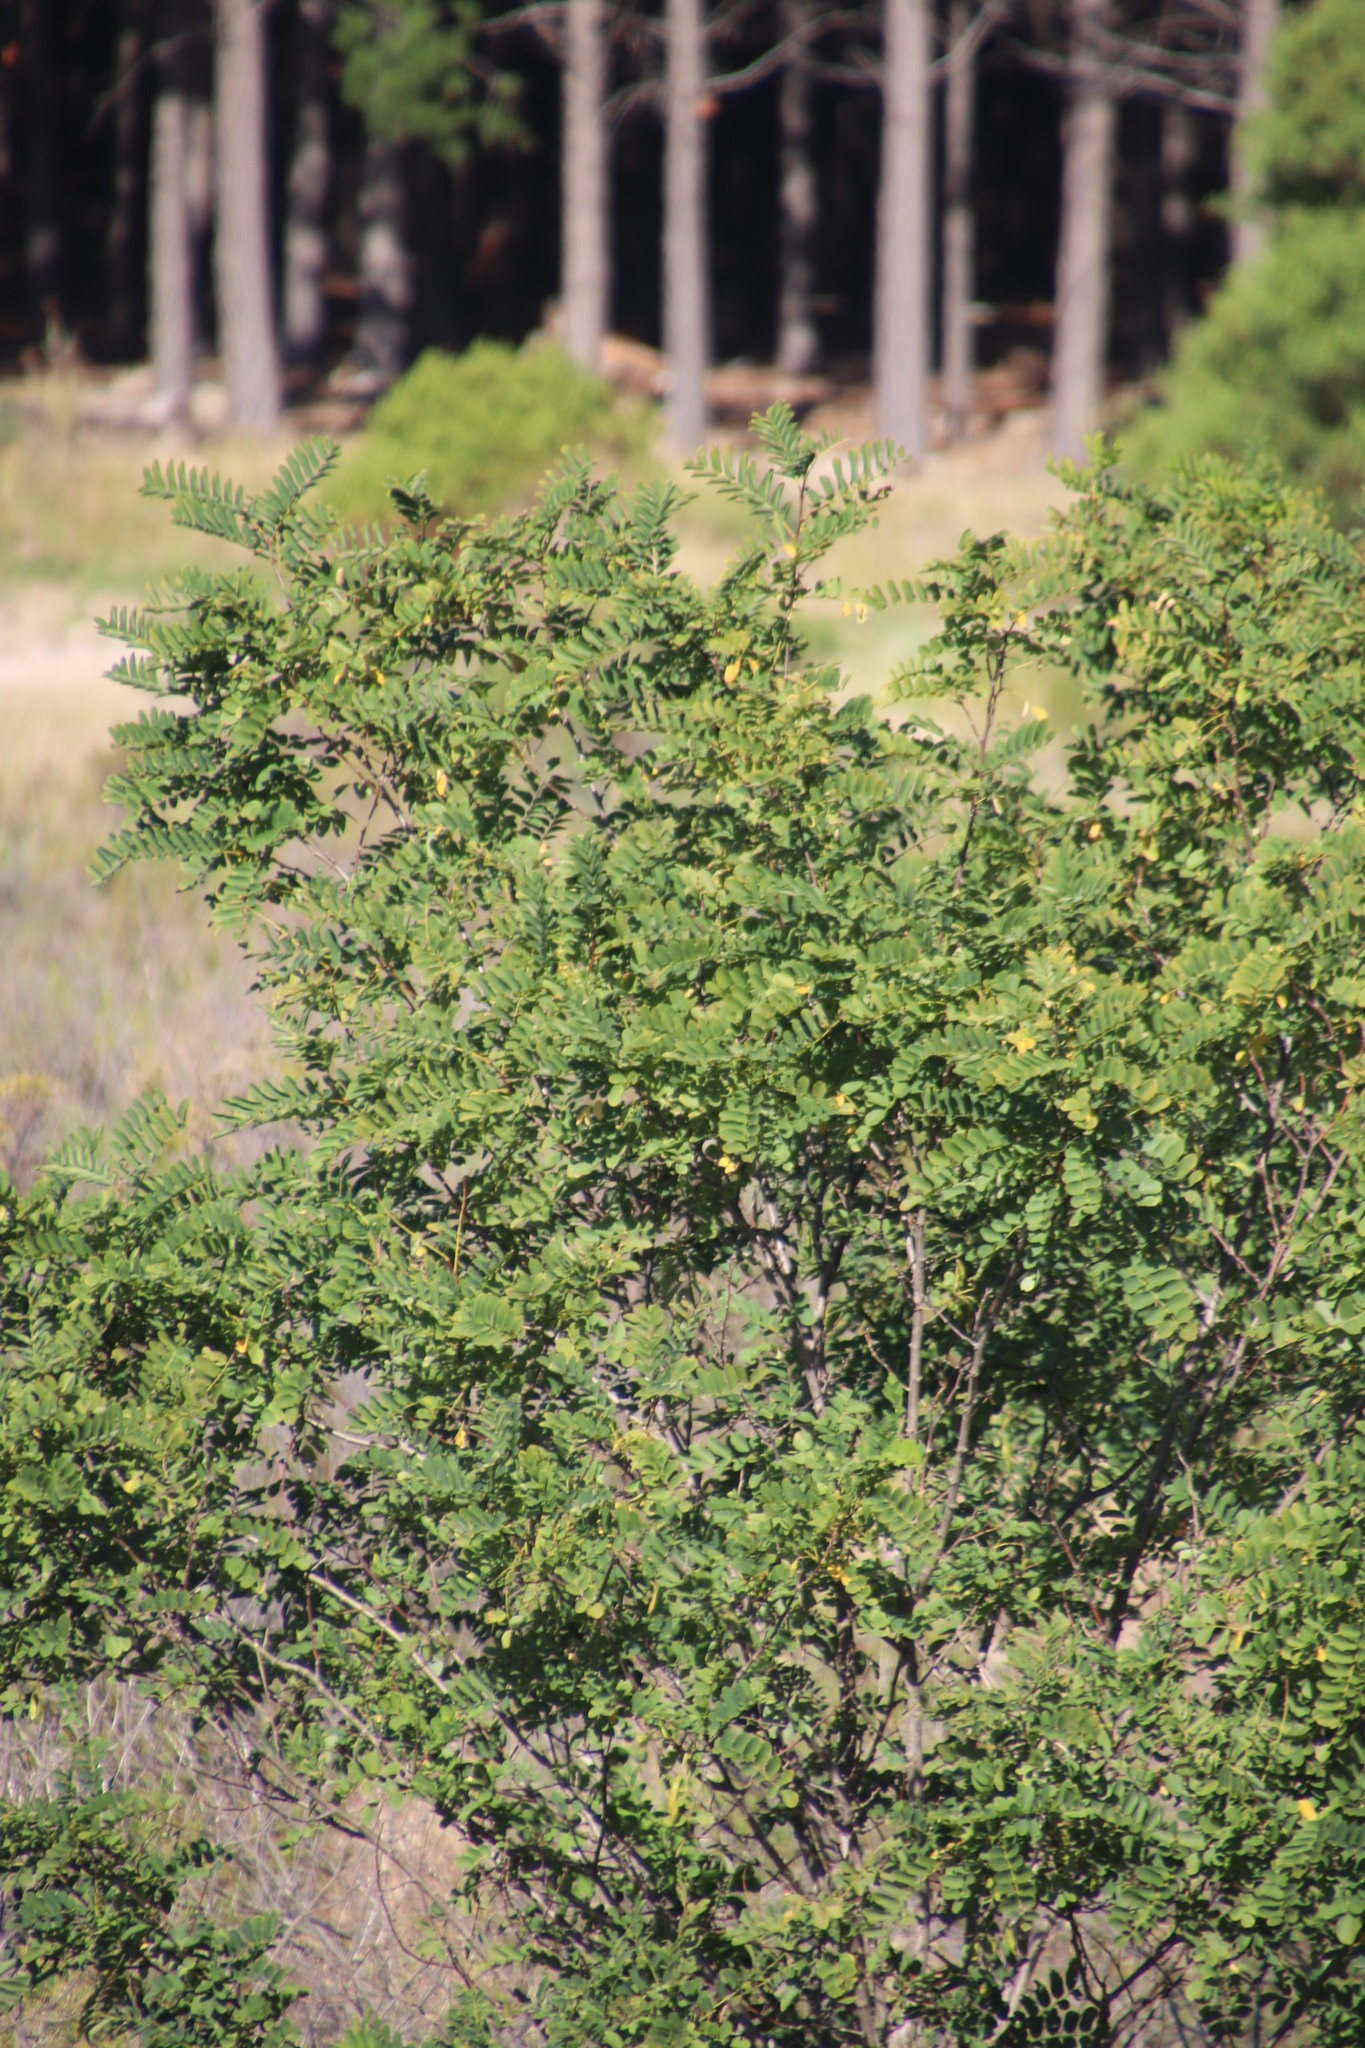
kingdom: Plantae
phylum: Tracheophyta
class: Magnoliopsida
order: Fabales
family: Fabaceae
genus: Robinia
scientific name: Robinia pseudoacacia
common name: Black locust
